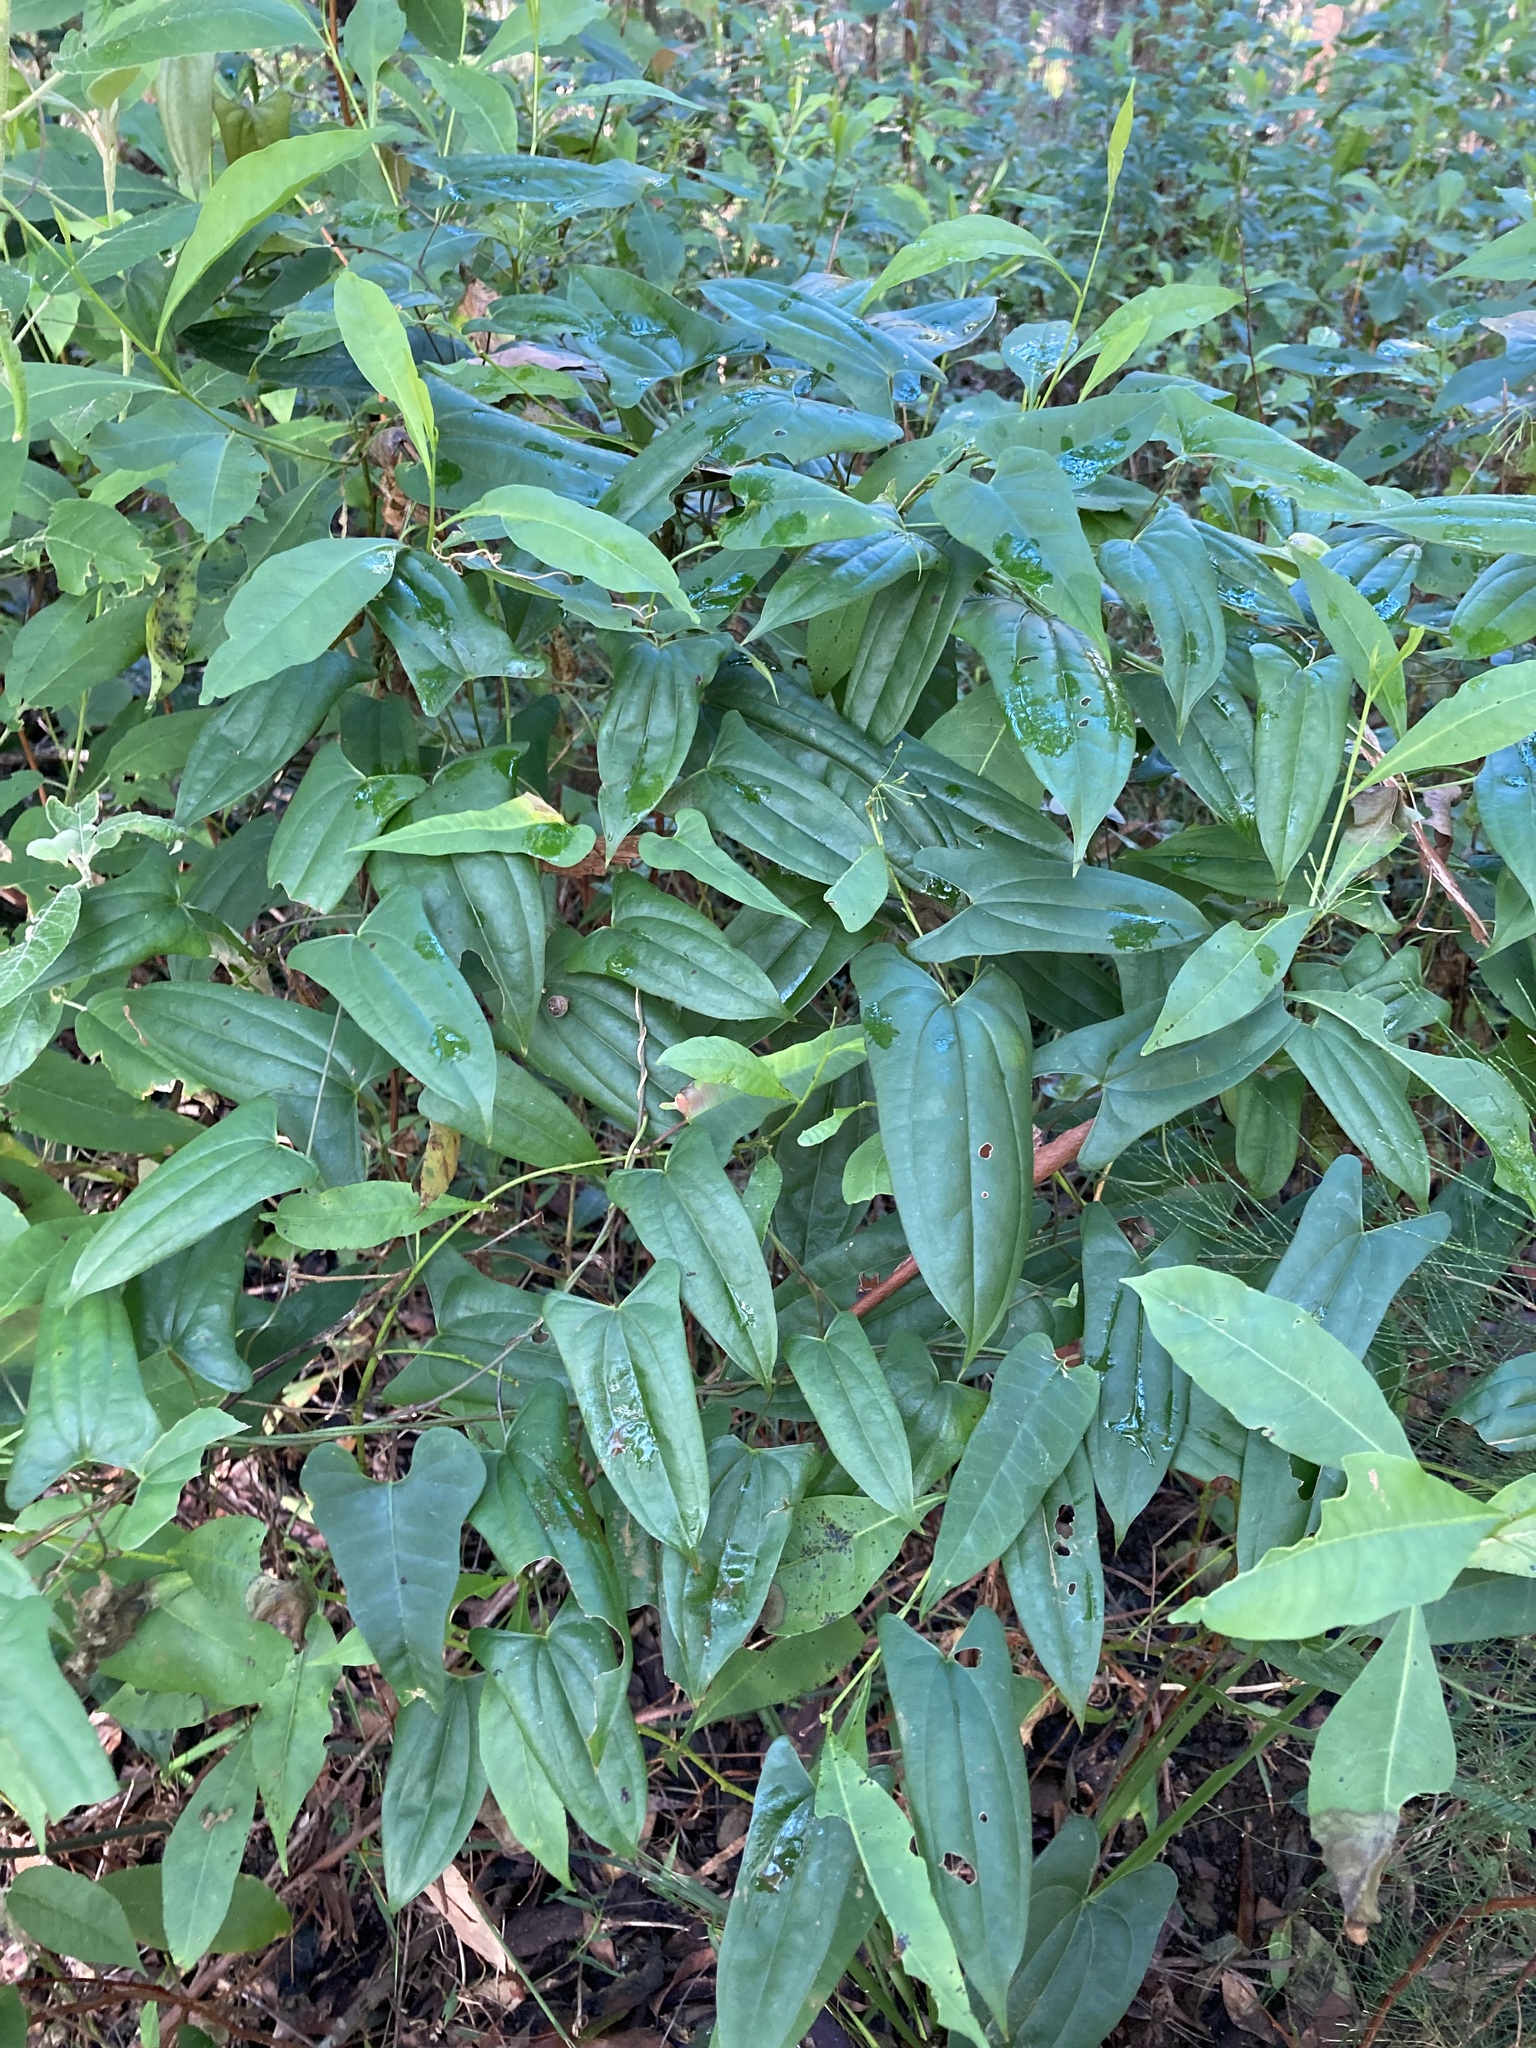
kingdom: Plantae
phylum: Tracheophyta
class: Liliopsida
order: Dioscoreales
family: Dioscoreaceae
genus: Dioscorea
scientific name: Dioscorea transversa
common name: Long yam
